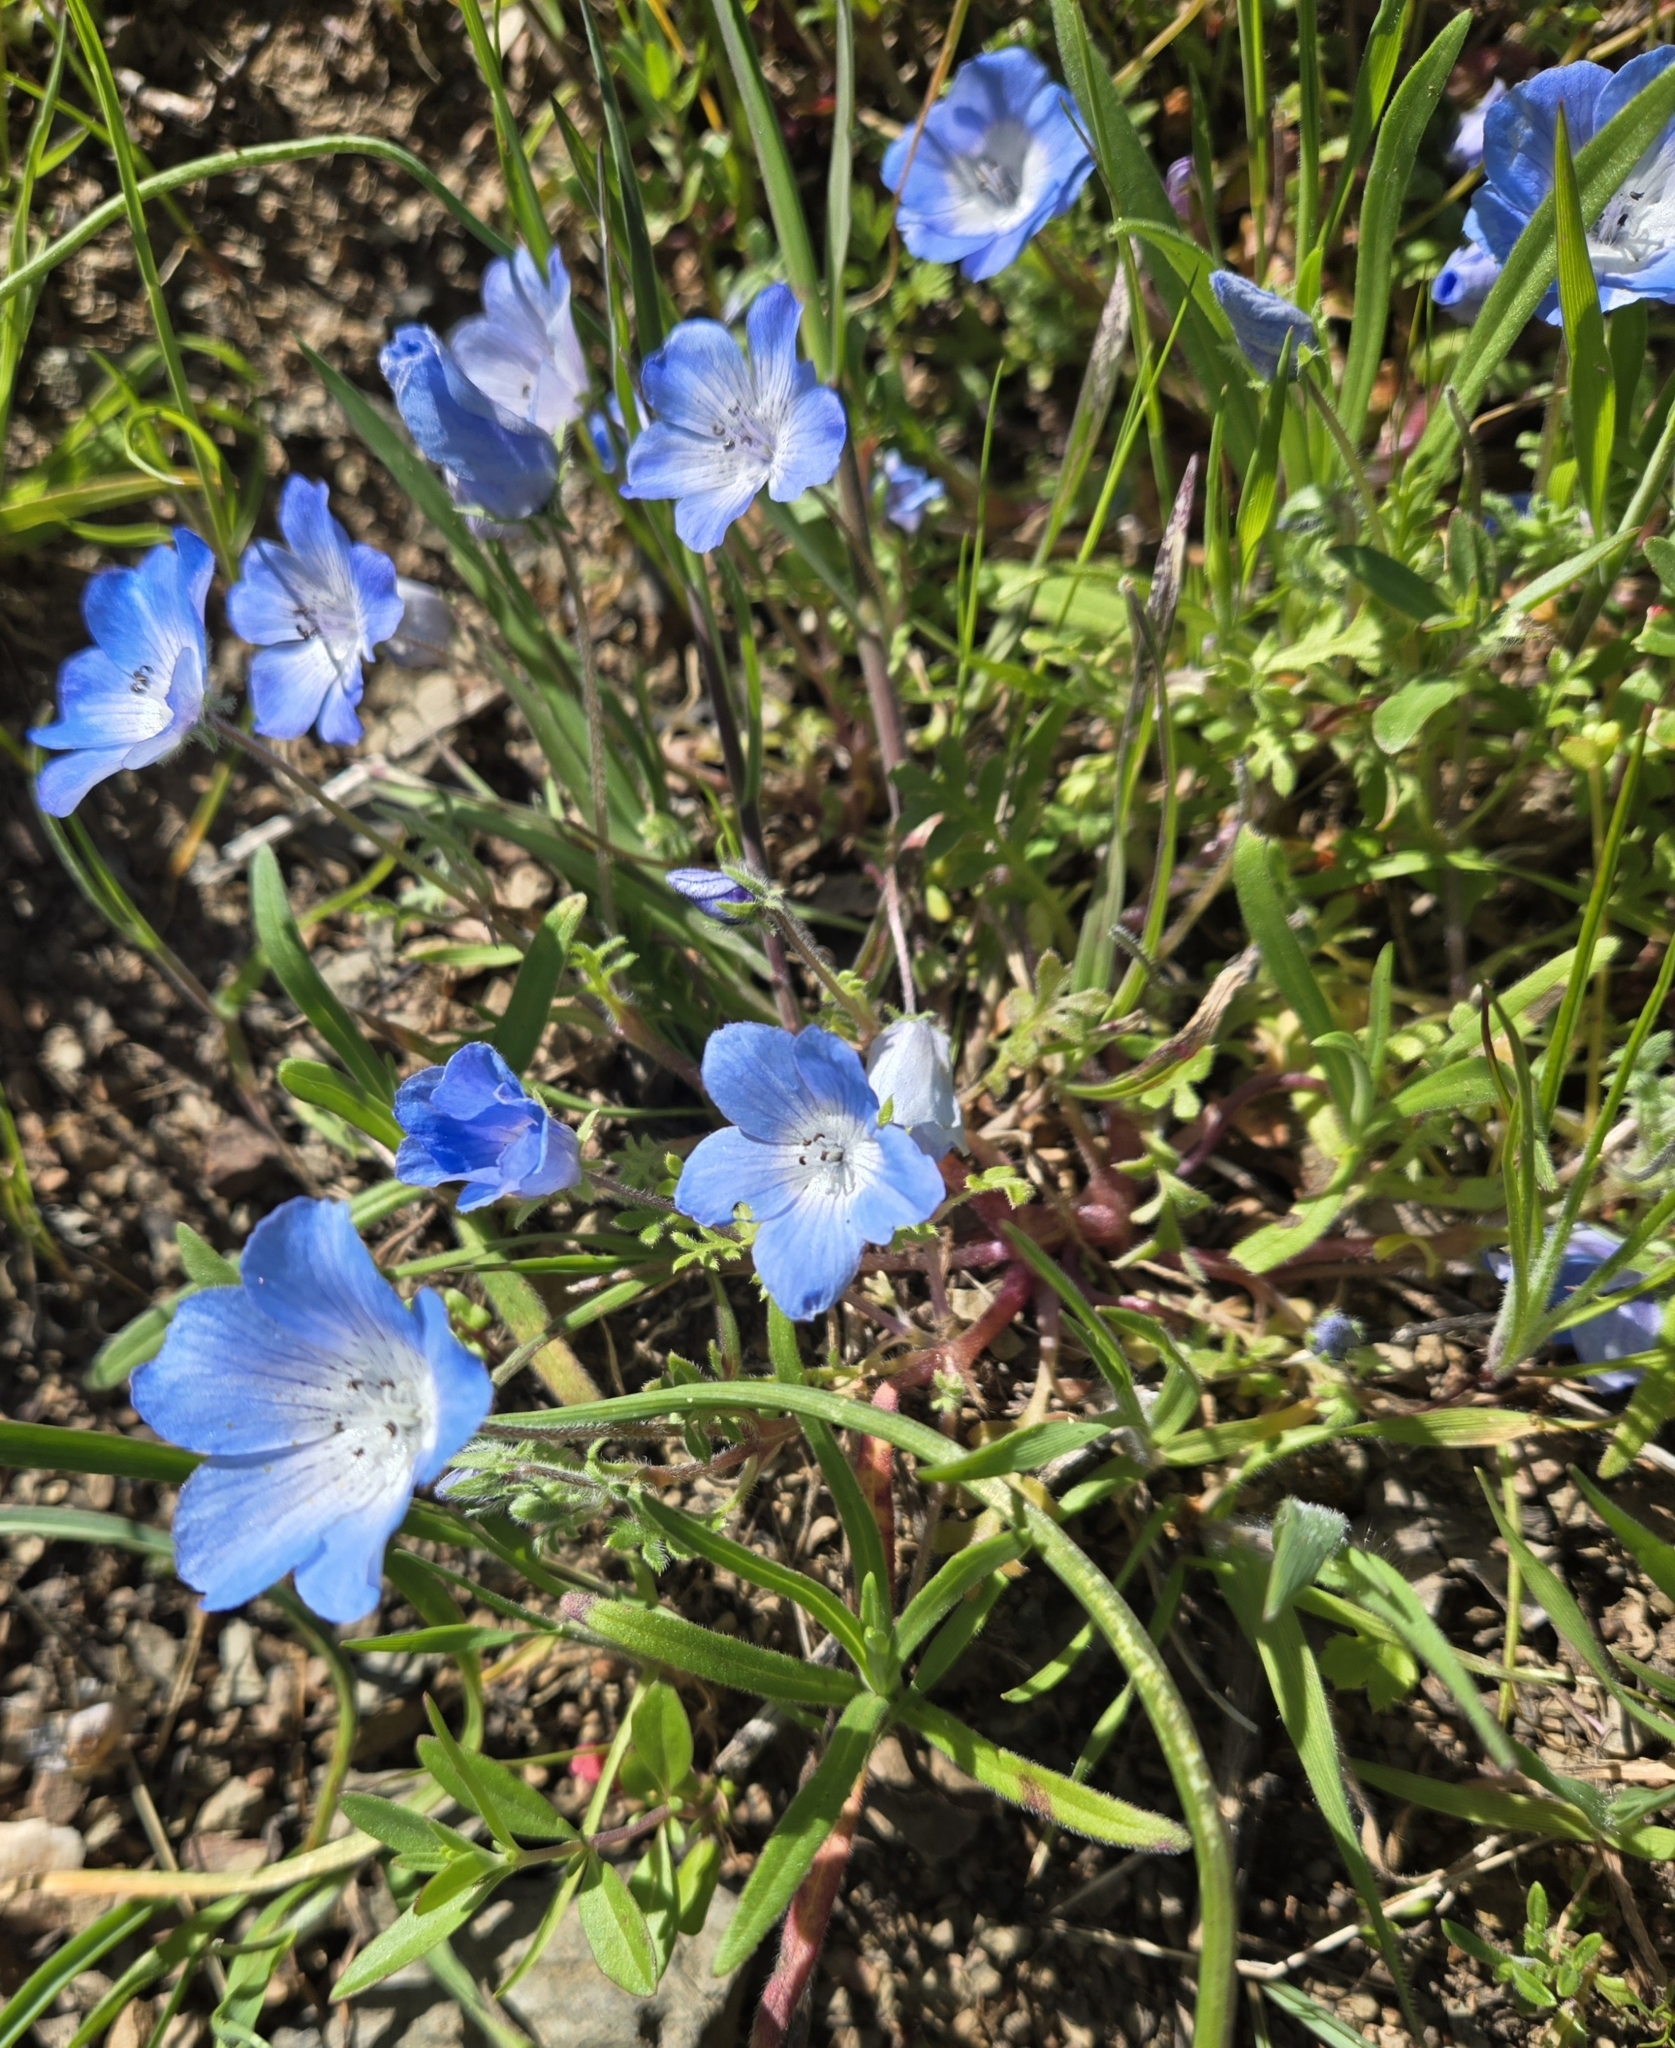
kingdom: Plantae
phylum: Tracheophyta
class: Magnoliopsida
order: Boraginales
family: Hydrophyllaceae
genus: Nemophila
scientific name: Nemophila menziesii
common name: Baby's-blue-eyes
